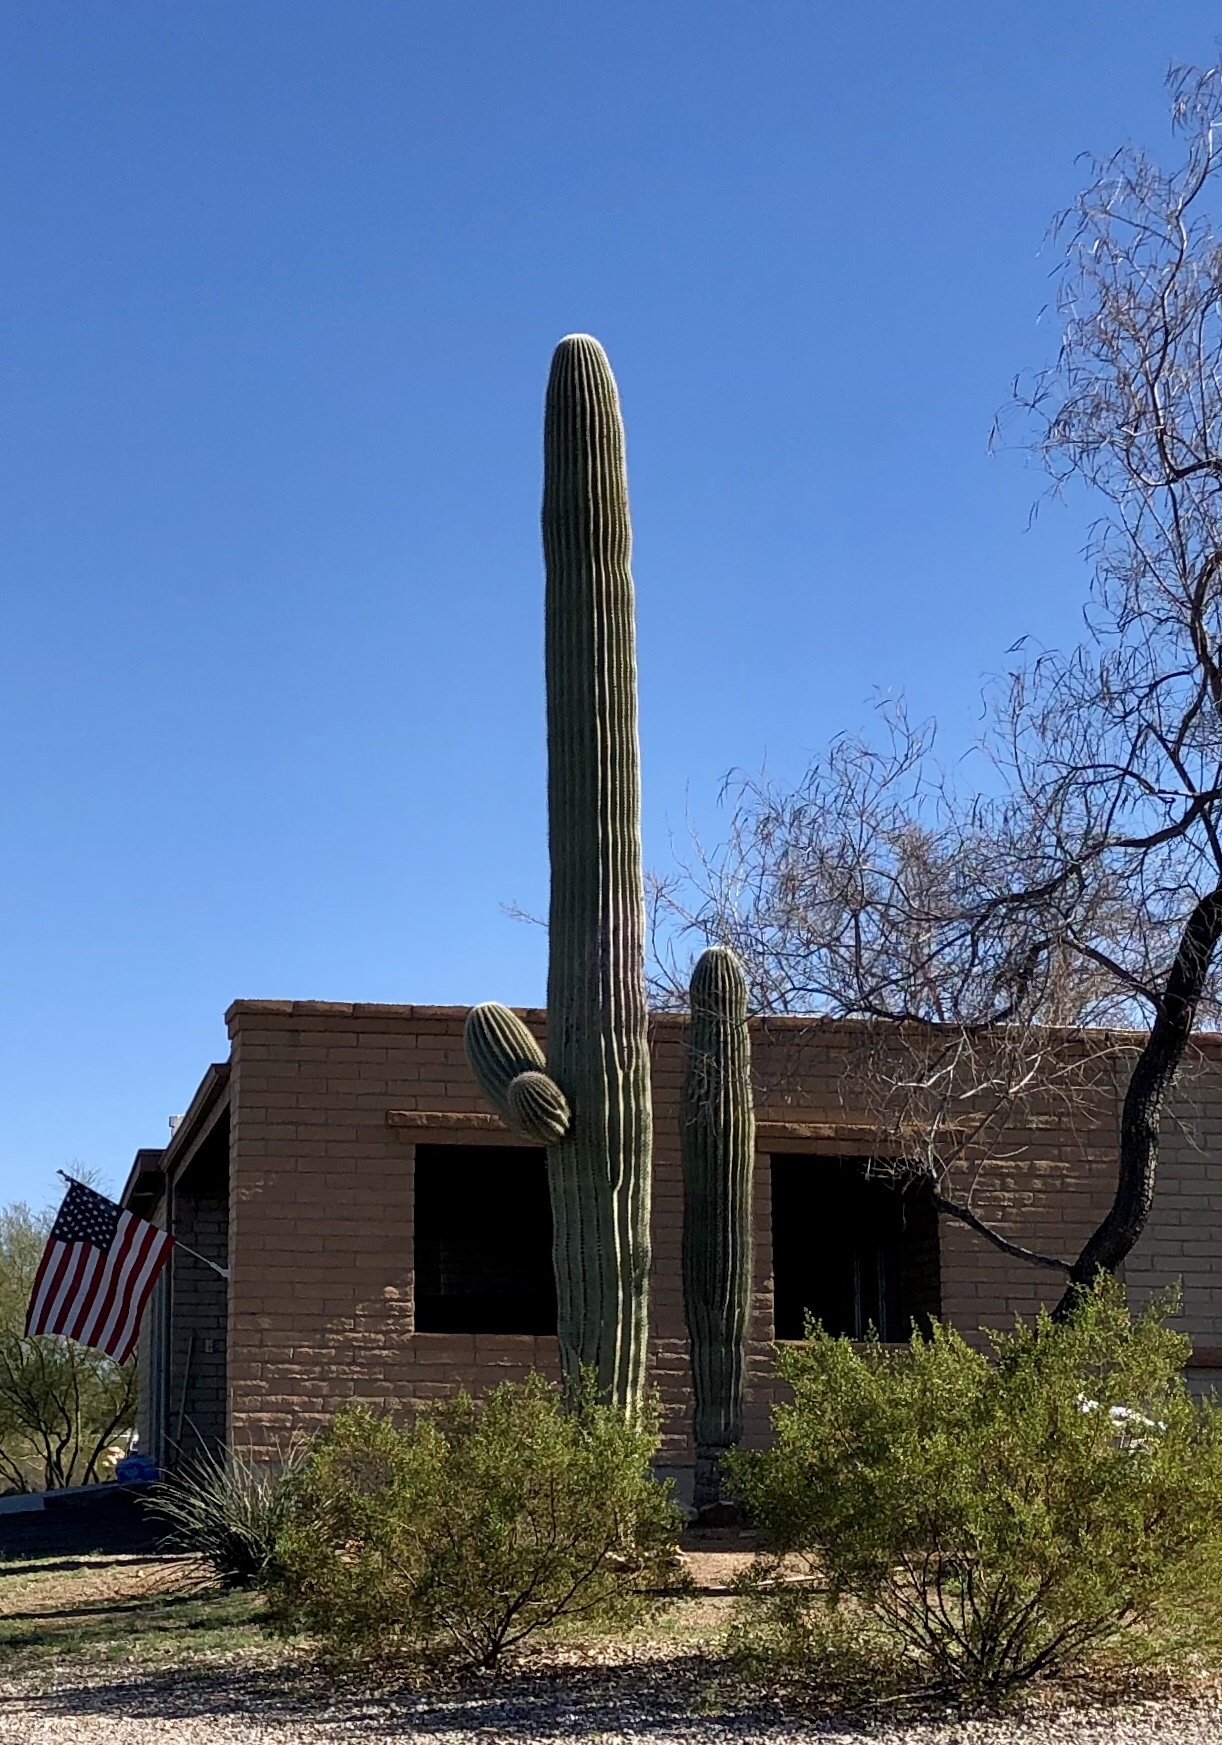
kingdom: Plantae
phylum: Tracheophyta
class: Magnoliopsida
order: Caryophyllales
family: Cactaceae
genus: Carnegiea
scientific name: Carnegiea gigantea
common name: Saguaro
